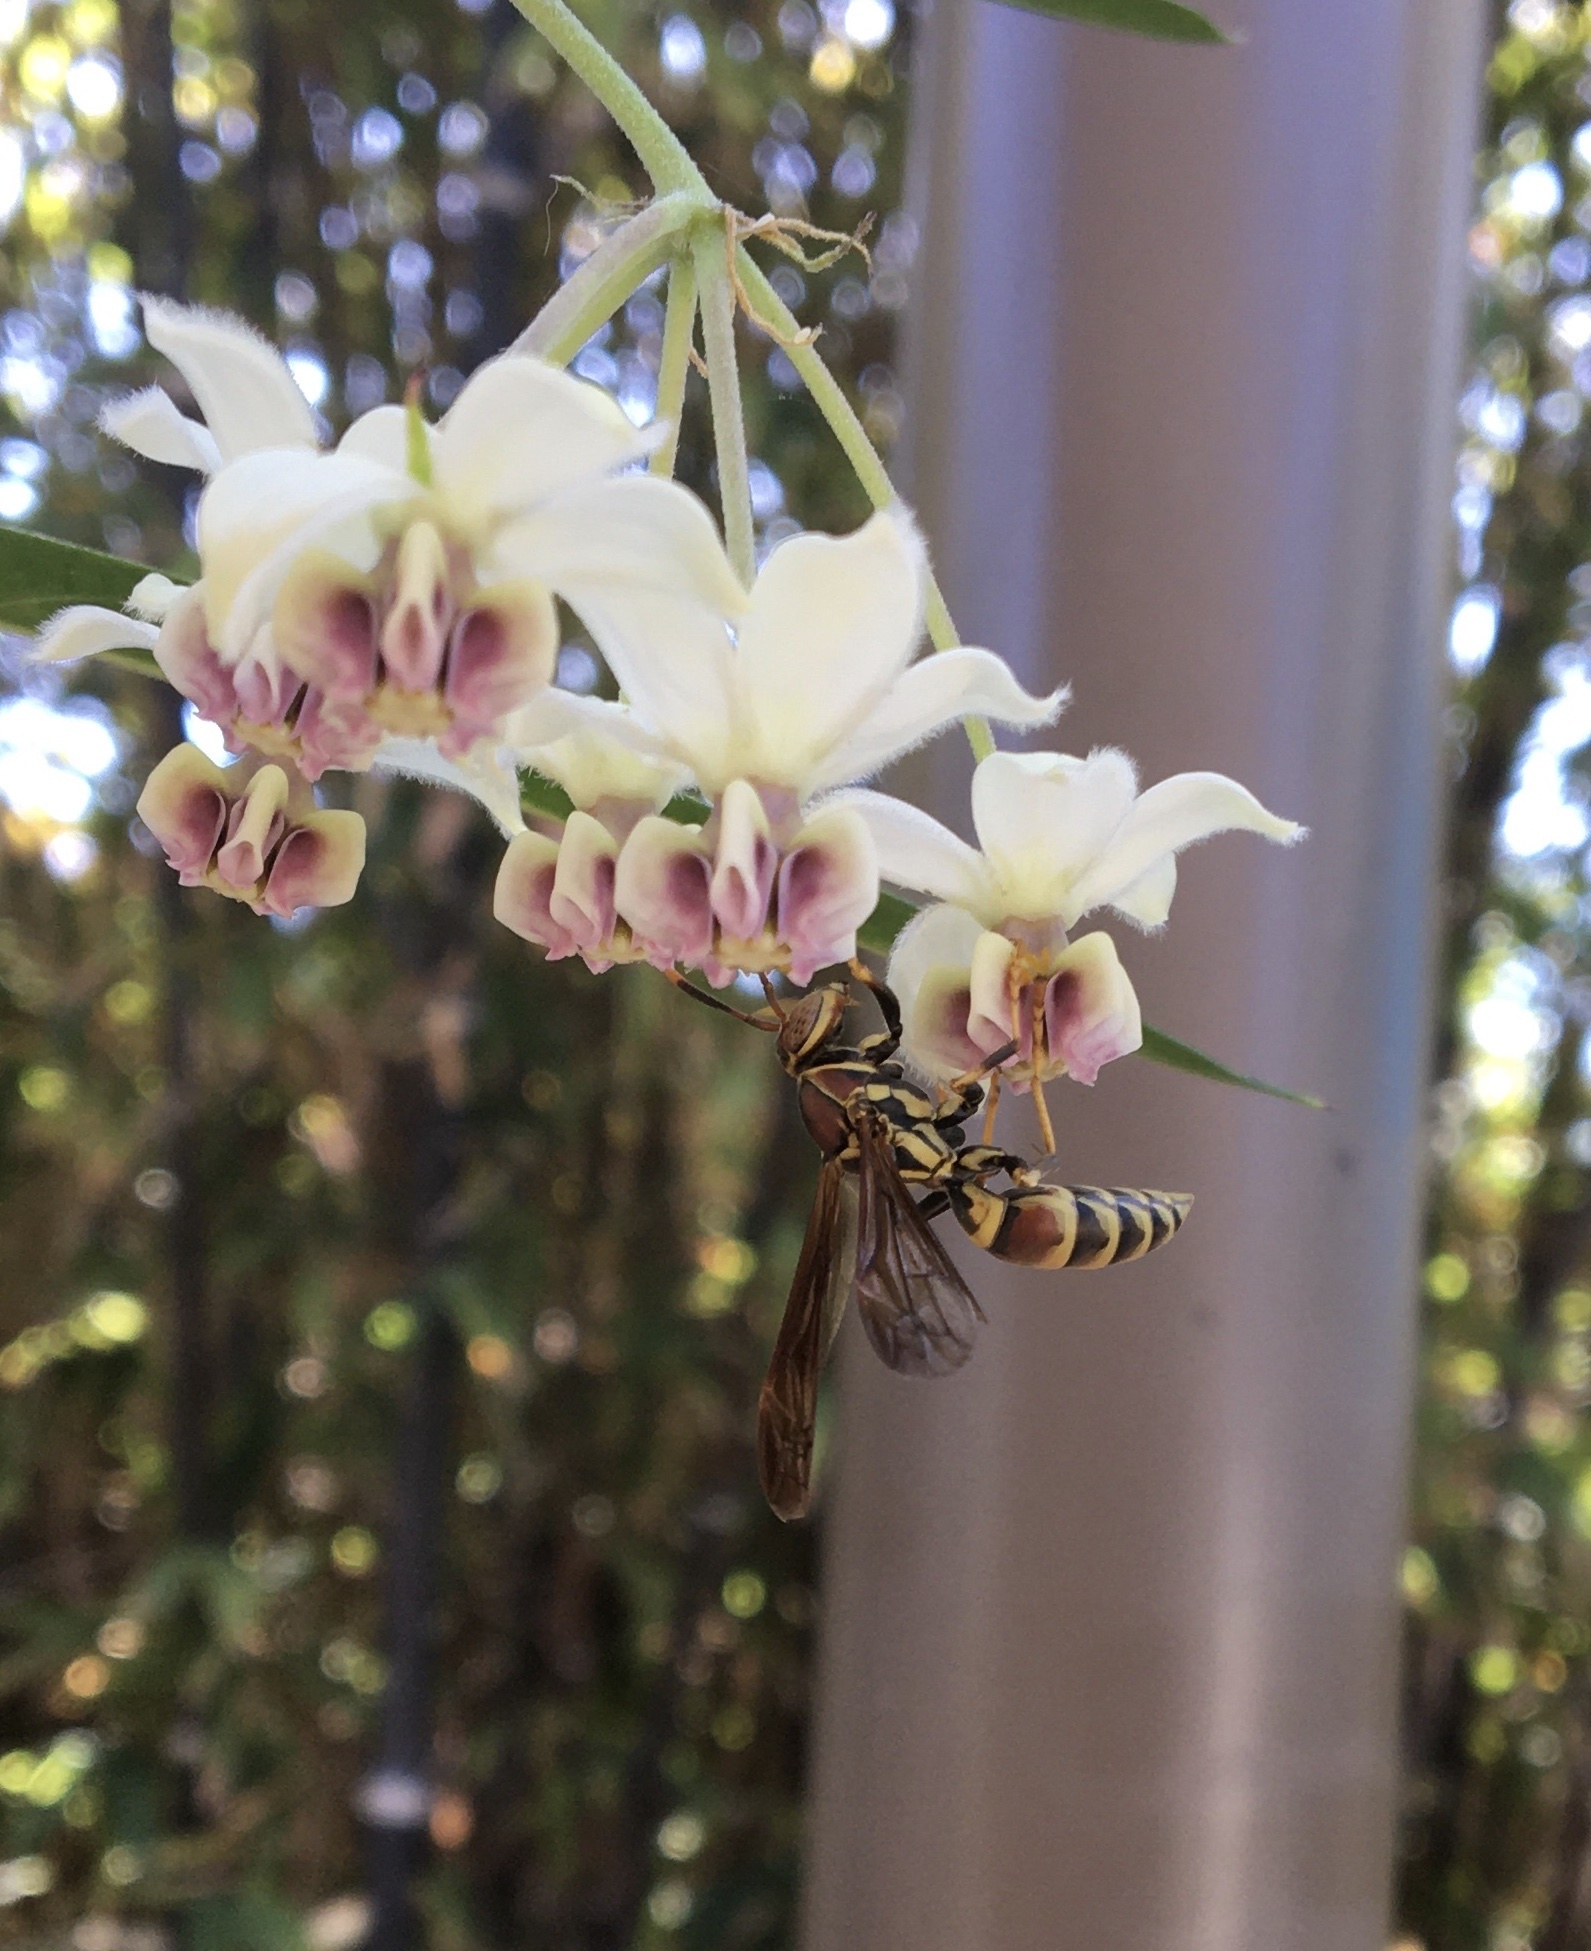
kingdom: Animalia
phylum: Arthropoda
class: Insecta
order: Hymenoptera
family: Eumenidae
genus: Polistes
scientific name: Polistes exclamans
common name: Paper wasp
